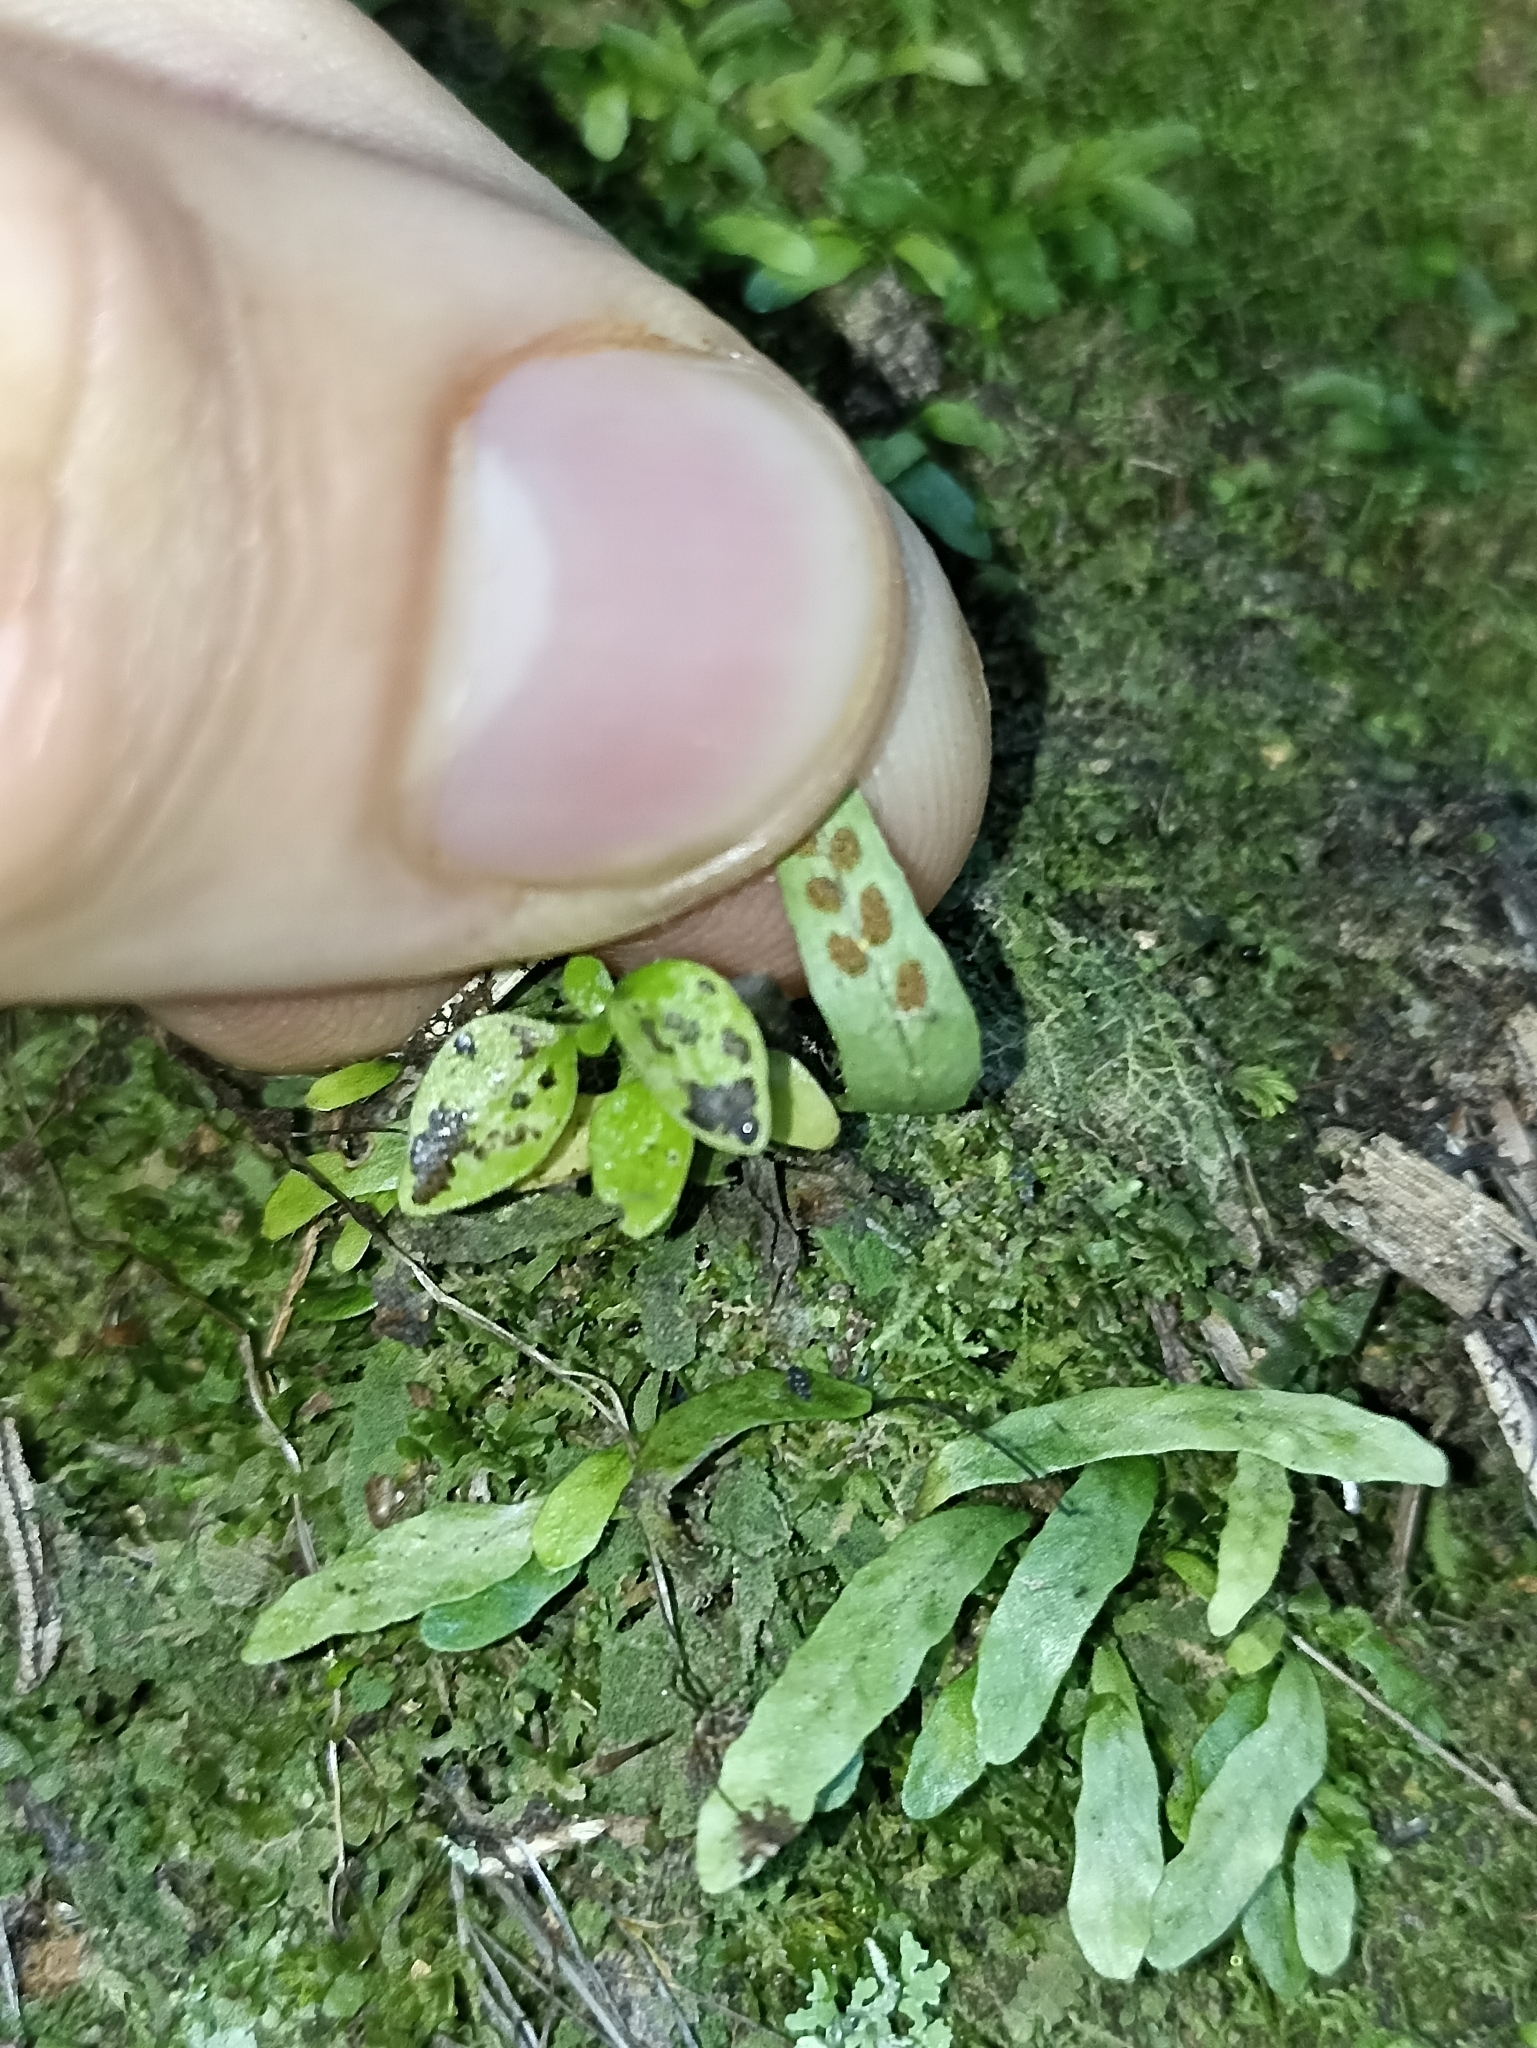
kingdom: Plantae
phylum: Tracheophyta
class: Polypodiopsida
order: Polypodiales
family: Polypodiaceae
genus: Notogrammitis
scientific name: Notogrammitis ciliata
